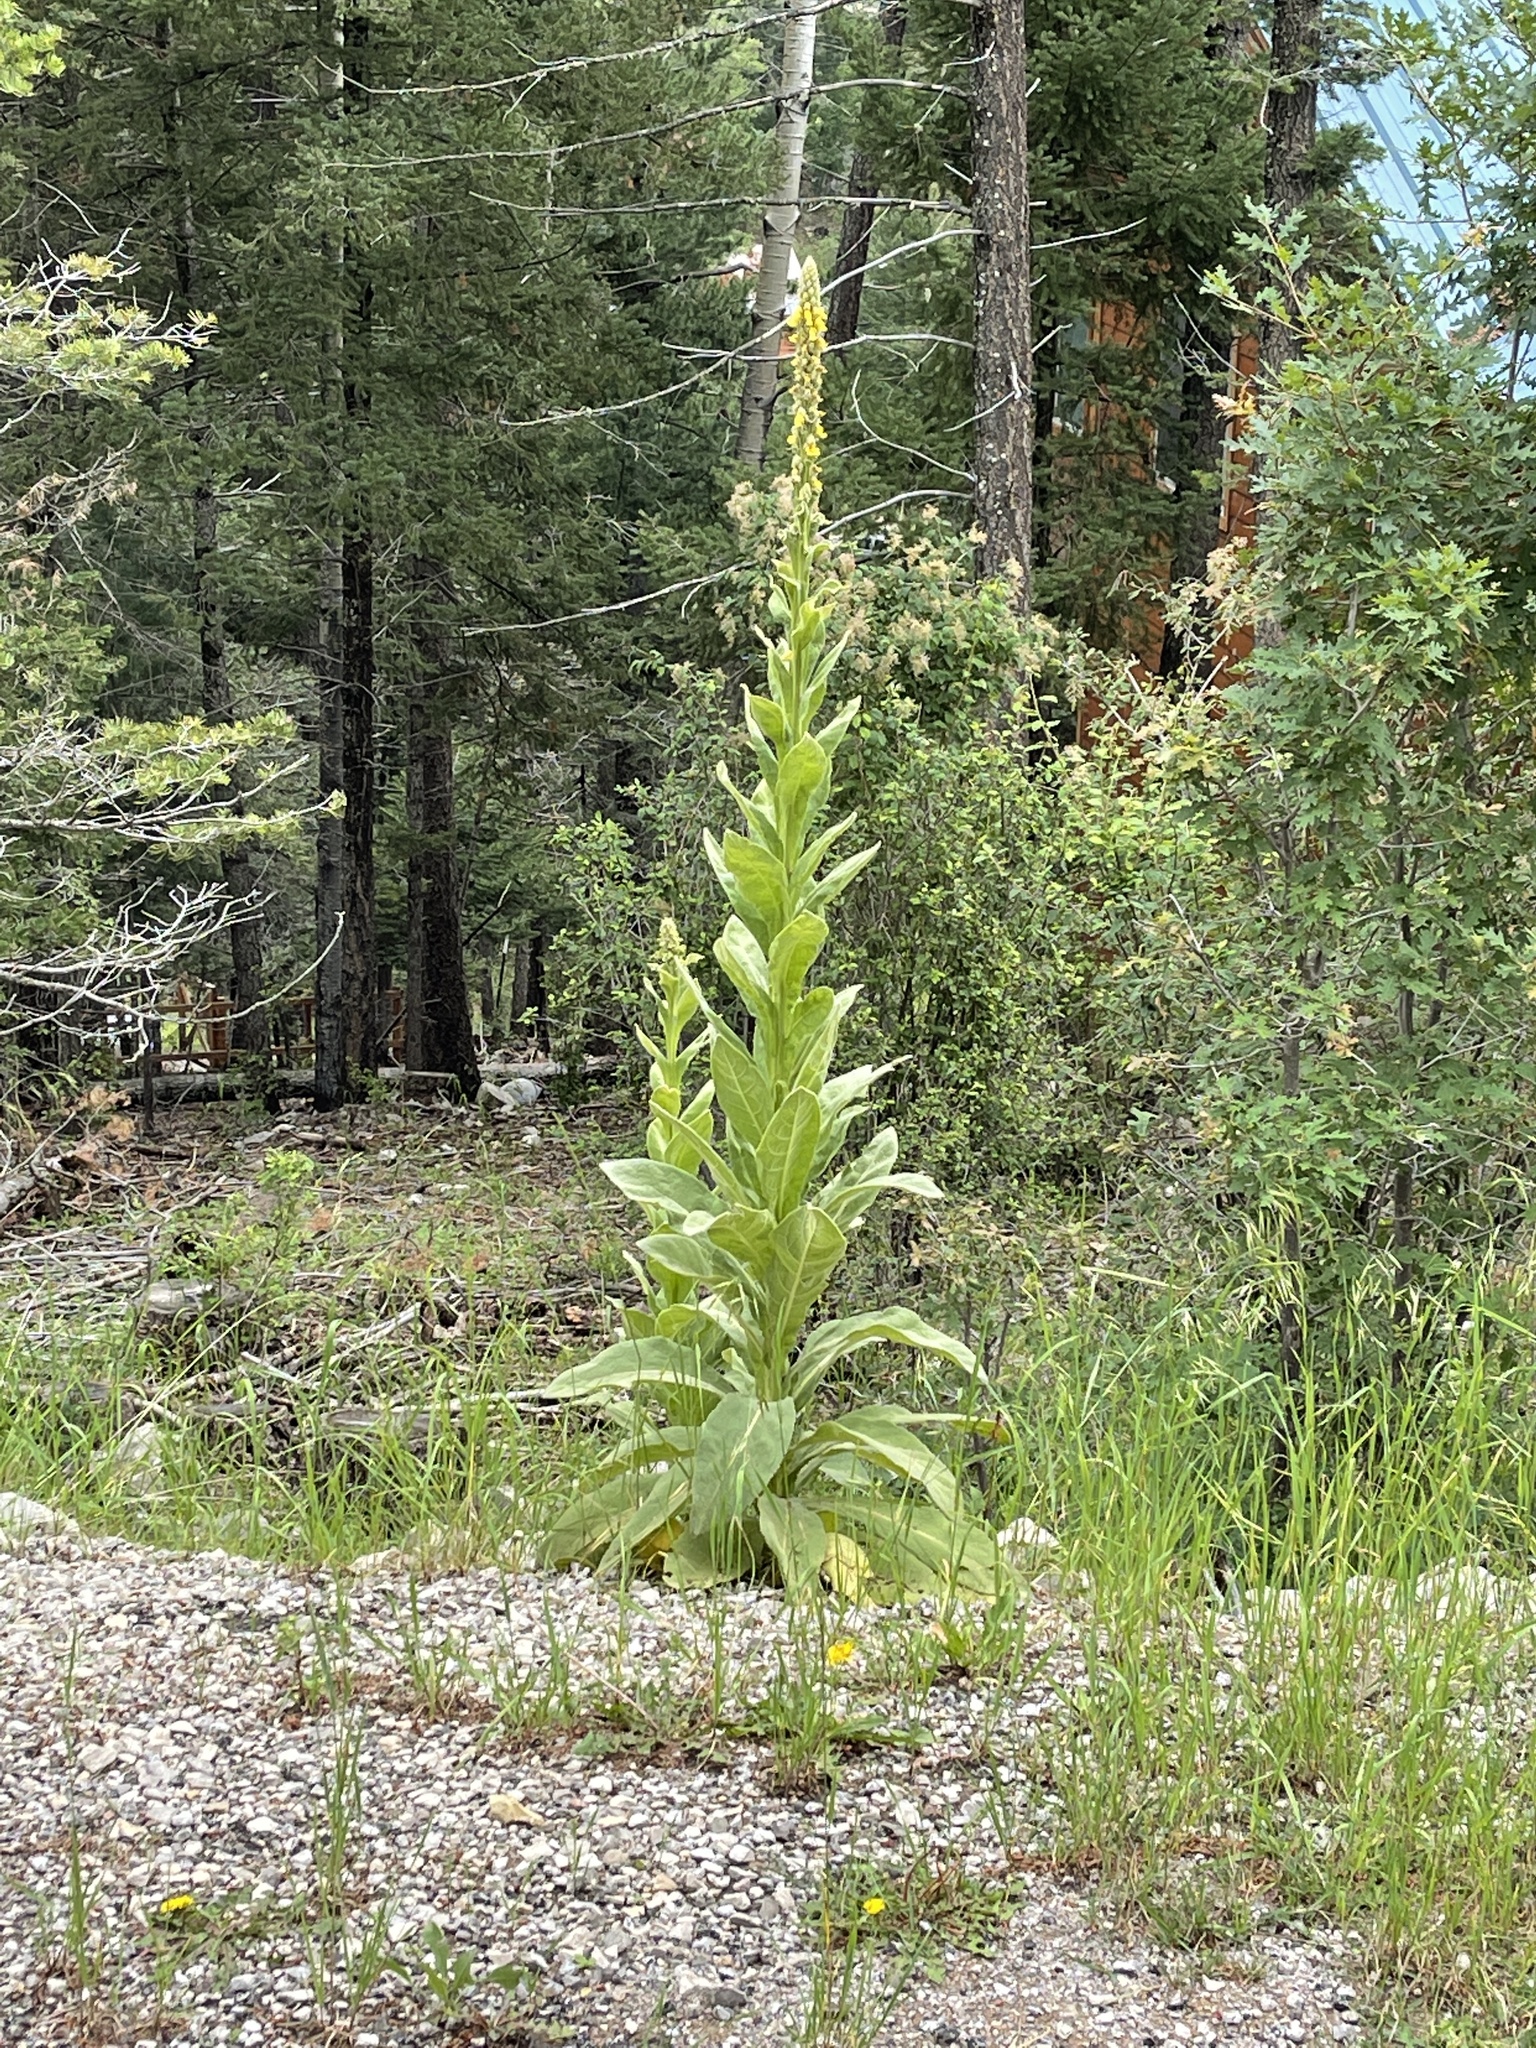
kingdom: Plantae
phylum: Tracheophyta
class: Magnoliopsida
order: Lamiales
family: Scrophulariaceae
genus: Verbascum
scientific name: Verbascum thapsus
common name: Common mullein
